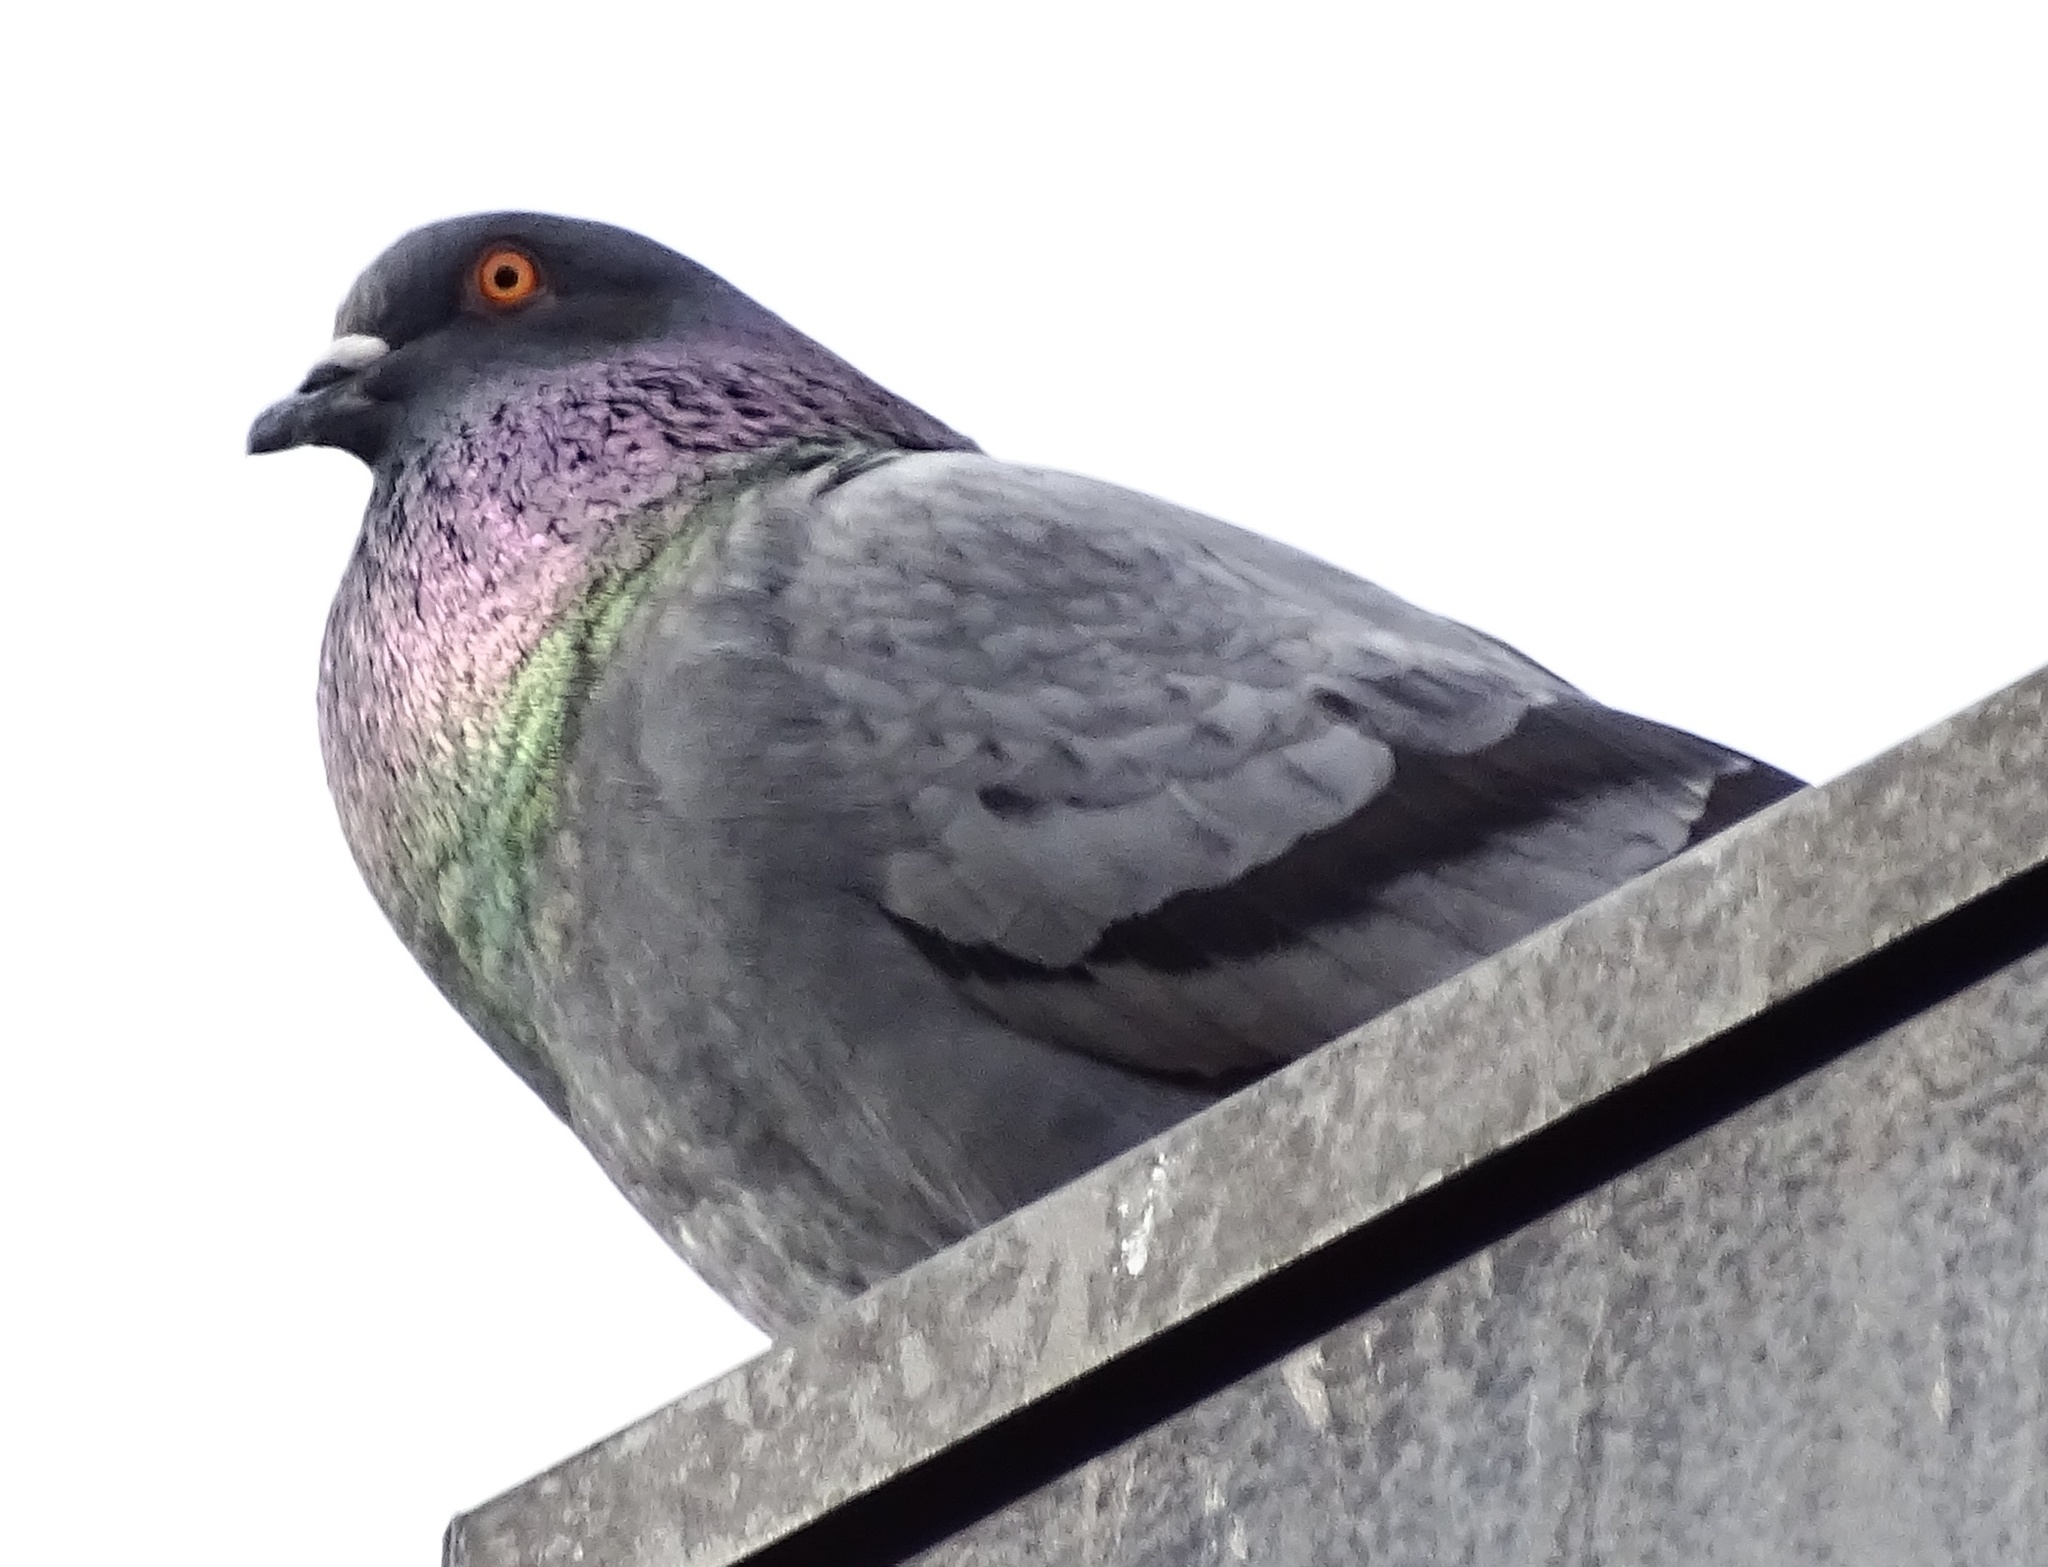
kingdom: Animalia
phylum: Chordata
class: Aves
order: Columbiformes
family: Columbidae
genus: Columba
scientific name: Columba livia
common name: Rock pigeon
